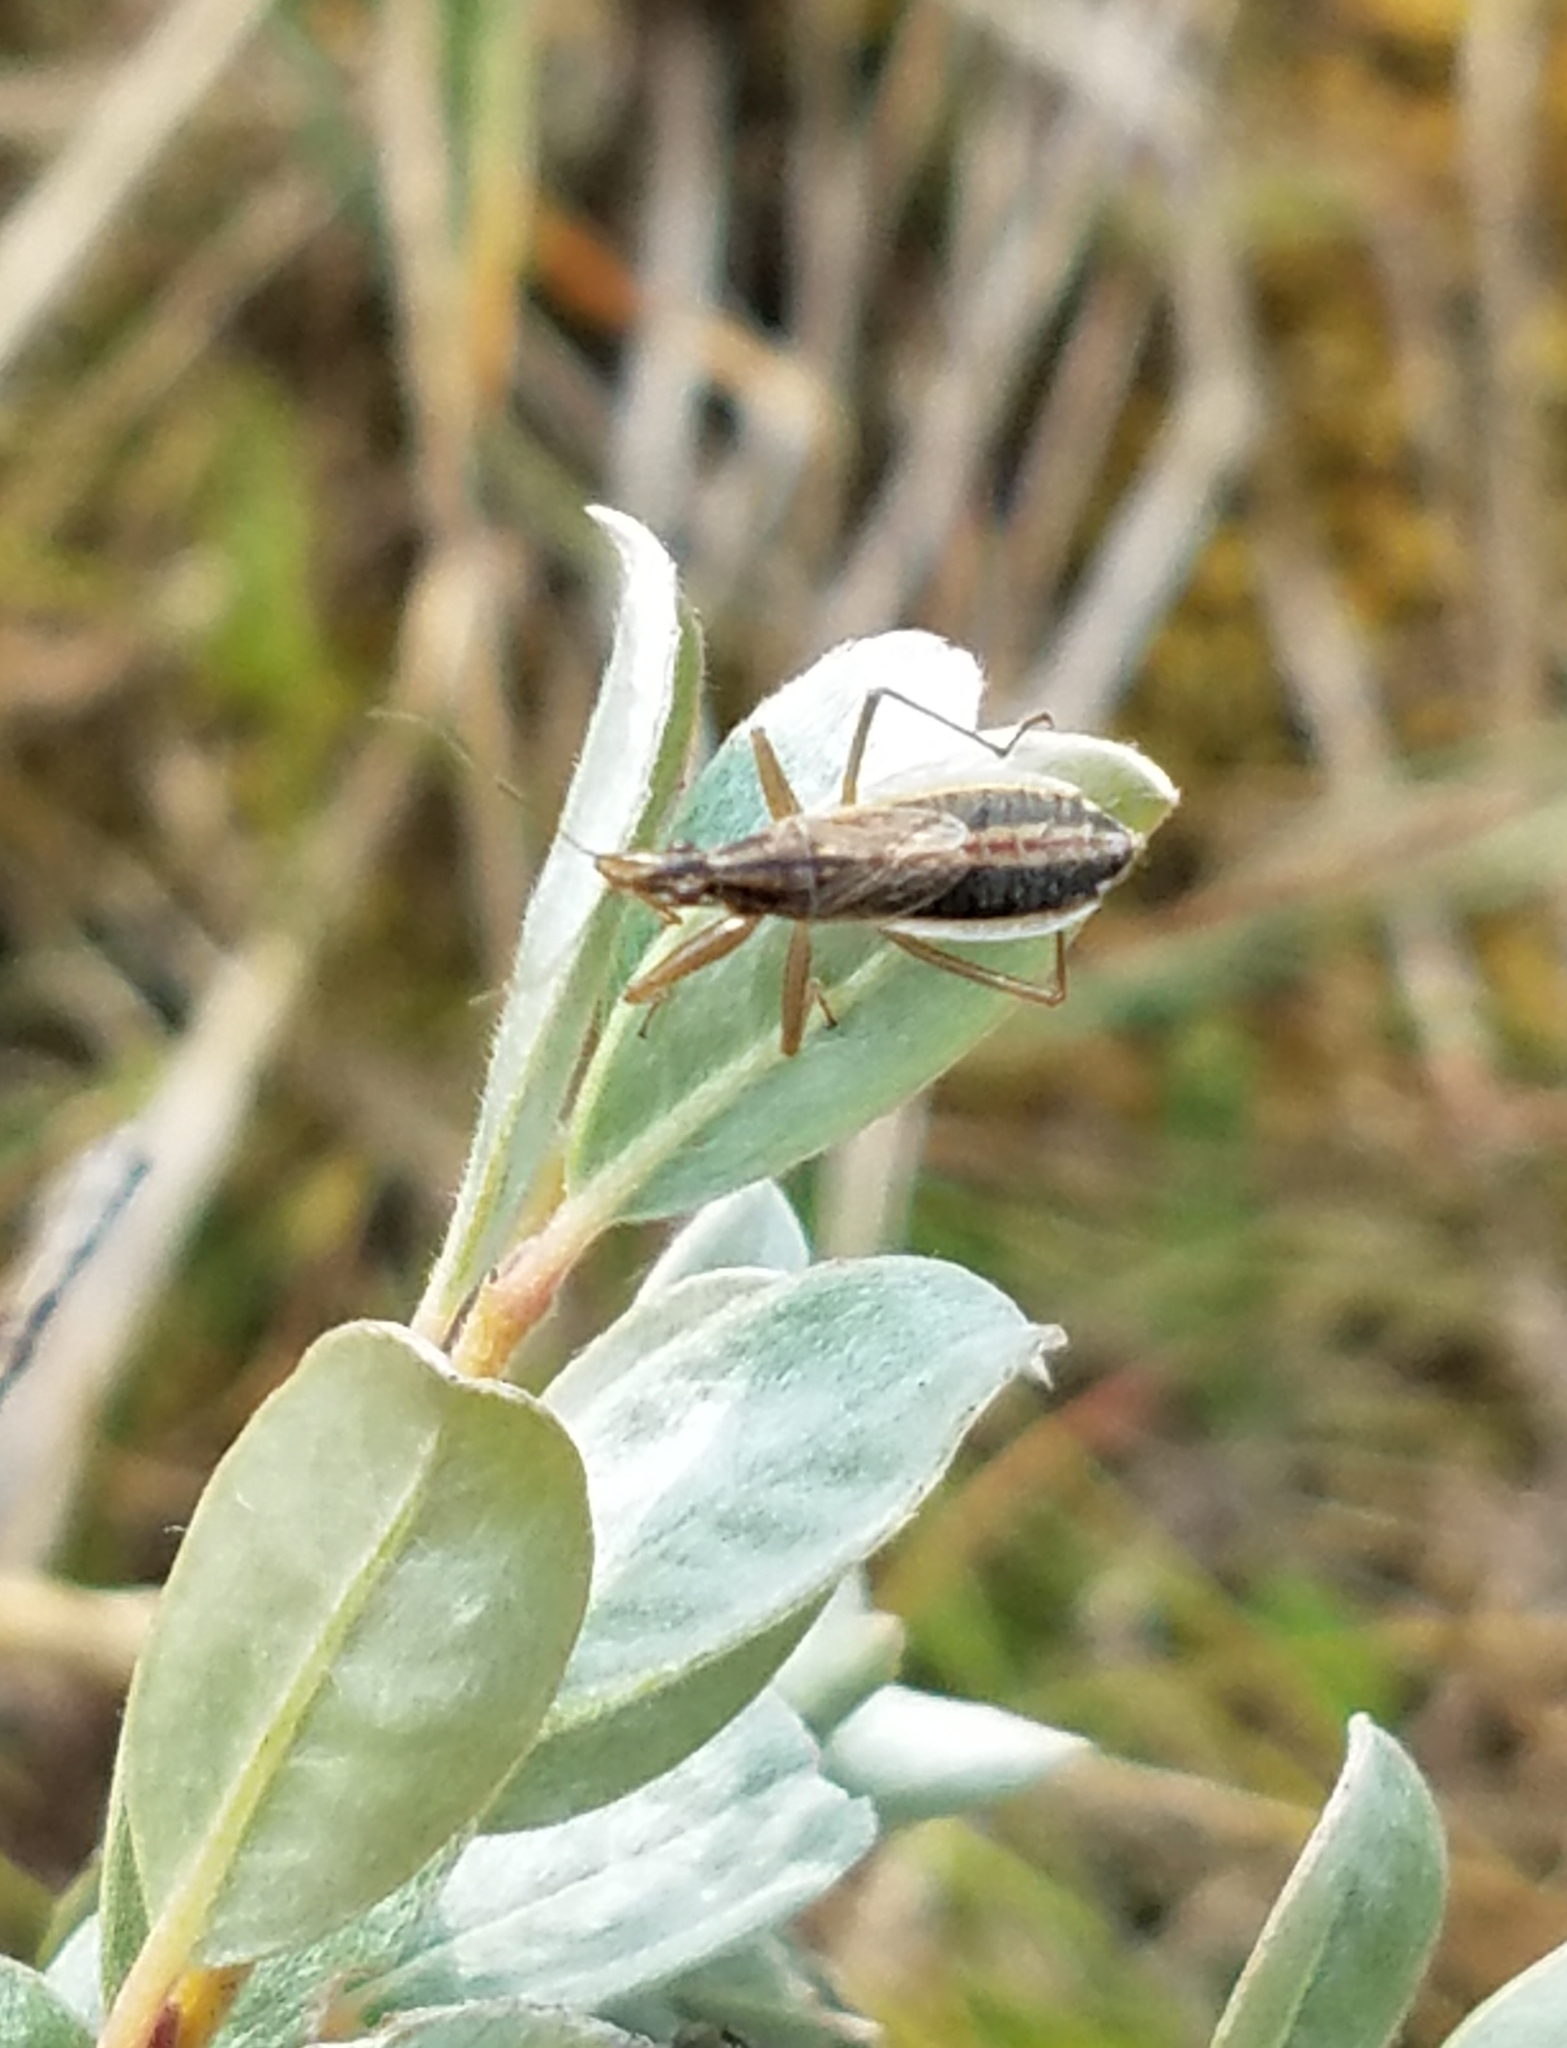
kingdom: Animalia
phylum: Arthropoda
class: Insecta
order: Hemiptera
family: Nabidae
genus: Nabis
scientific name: Nabis flavomarginatus
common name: Broad damselbug
